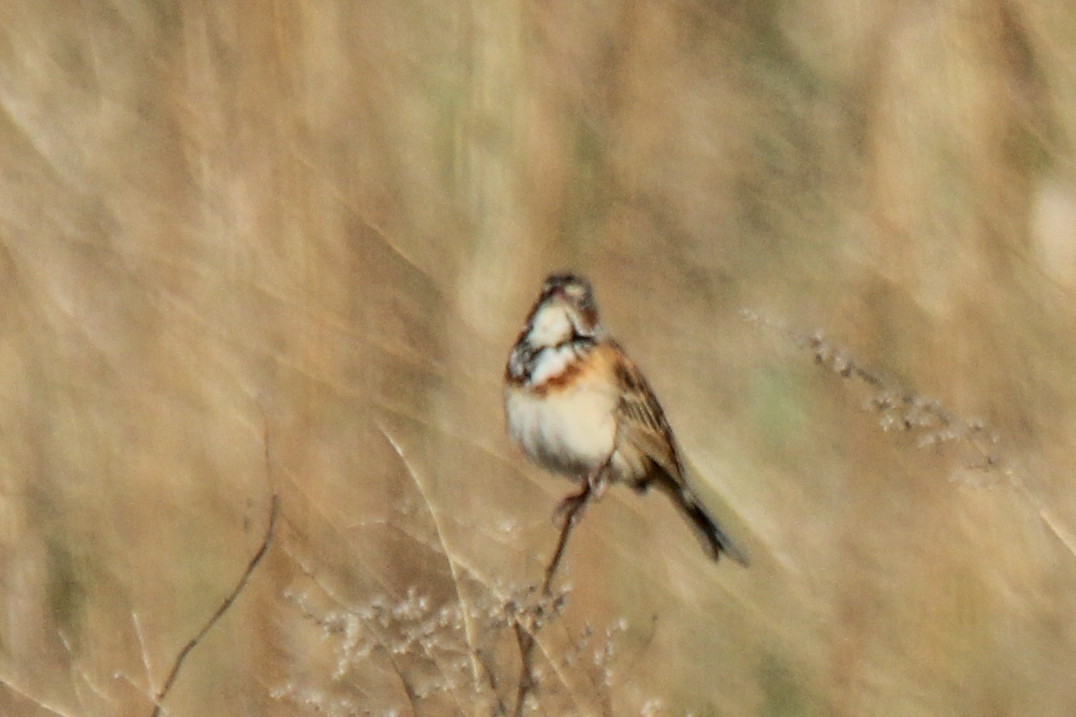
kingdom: Animalia
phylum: Chordata
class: Aves
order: Passeriformes
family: Emberizidae
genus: Emberiza
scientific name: Emberiza fucata
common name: Chestnut-eared bunting
